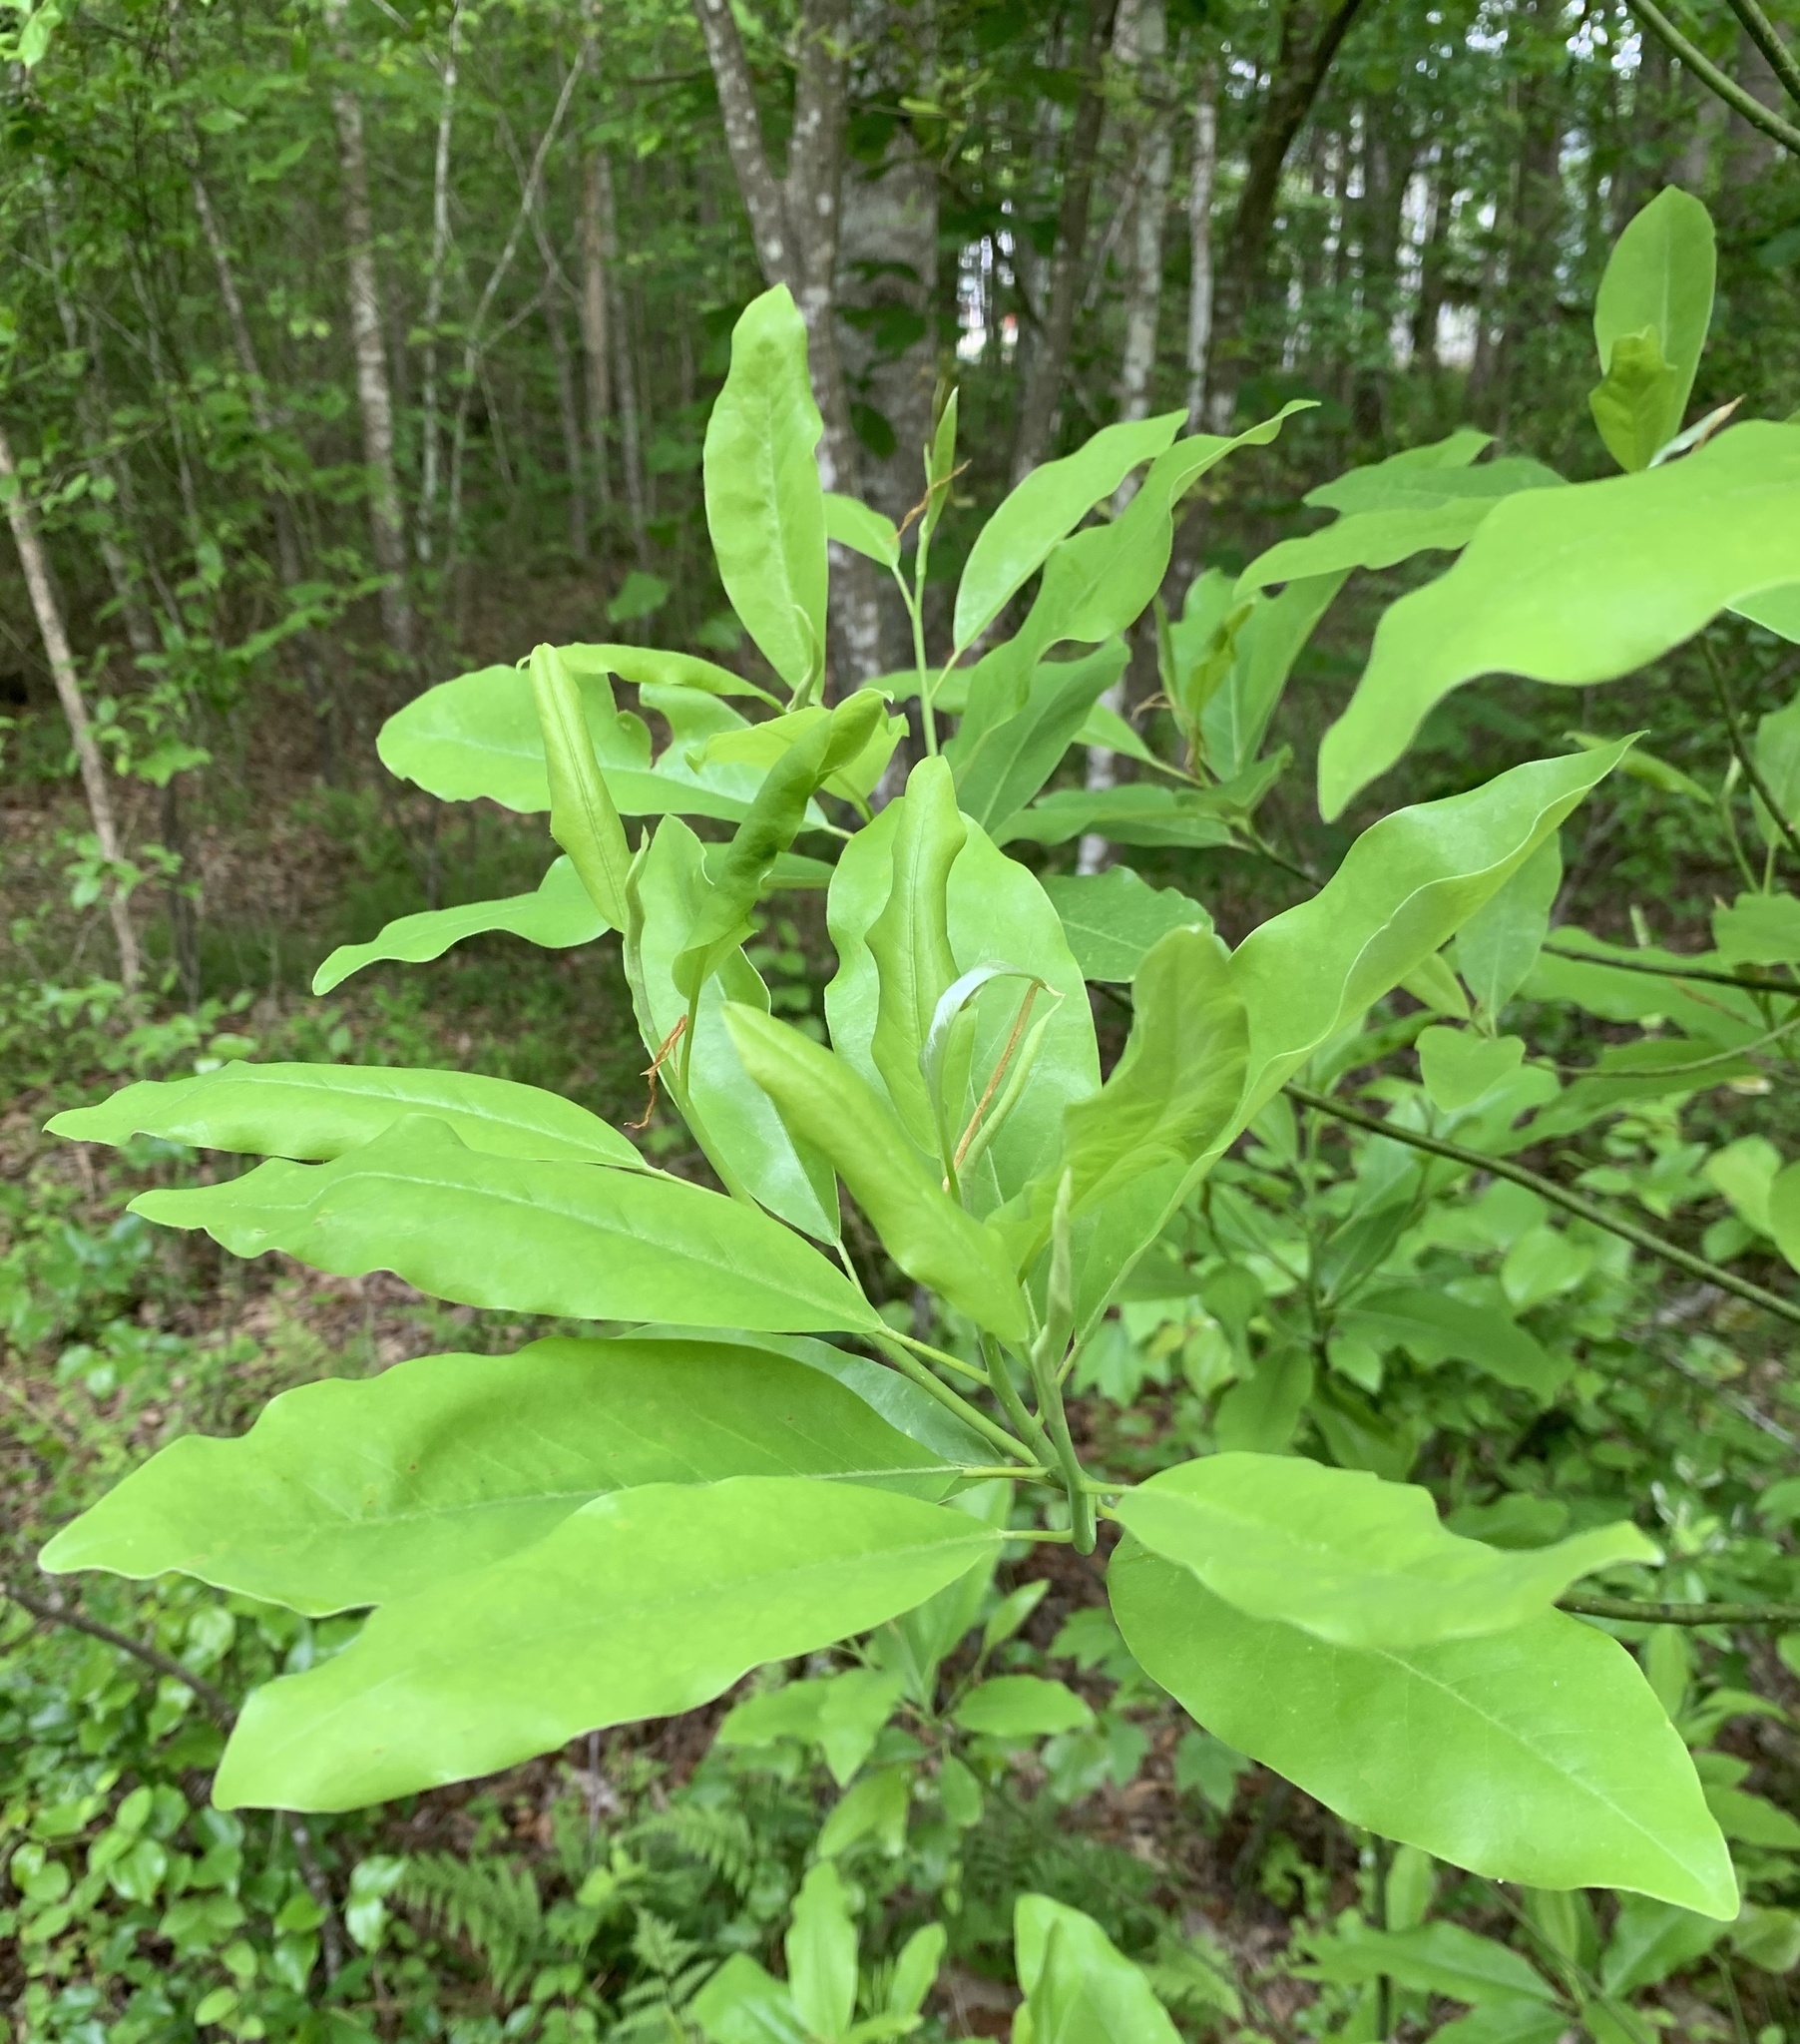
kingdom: Plantae
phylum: Tracheophyta
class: Magnoliopsida
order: Magnoliales
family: Magnoliaceae
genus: Magnolia
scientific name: Magnolia virginiana
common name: Swamp bay
